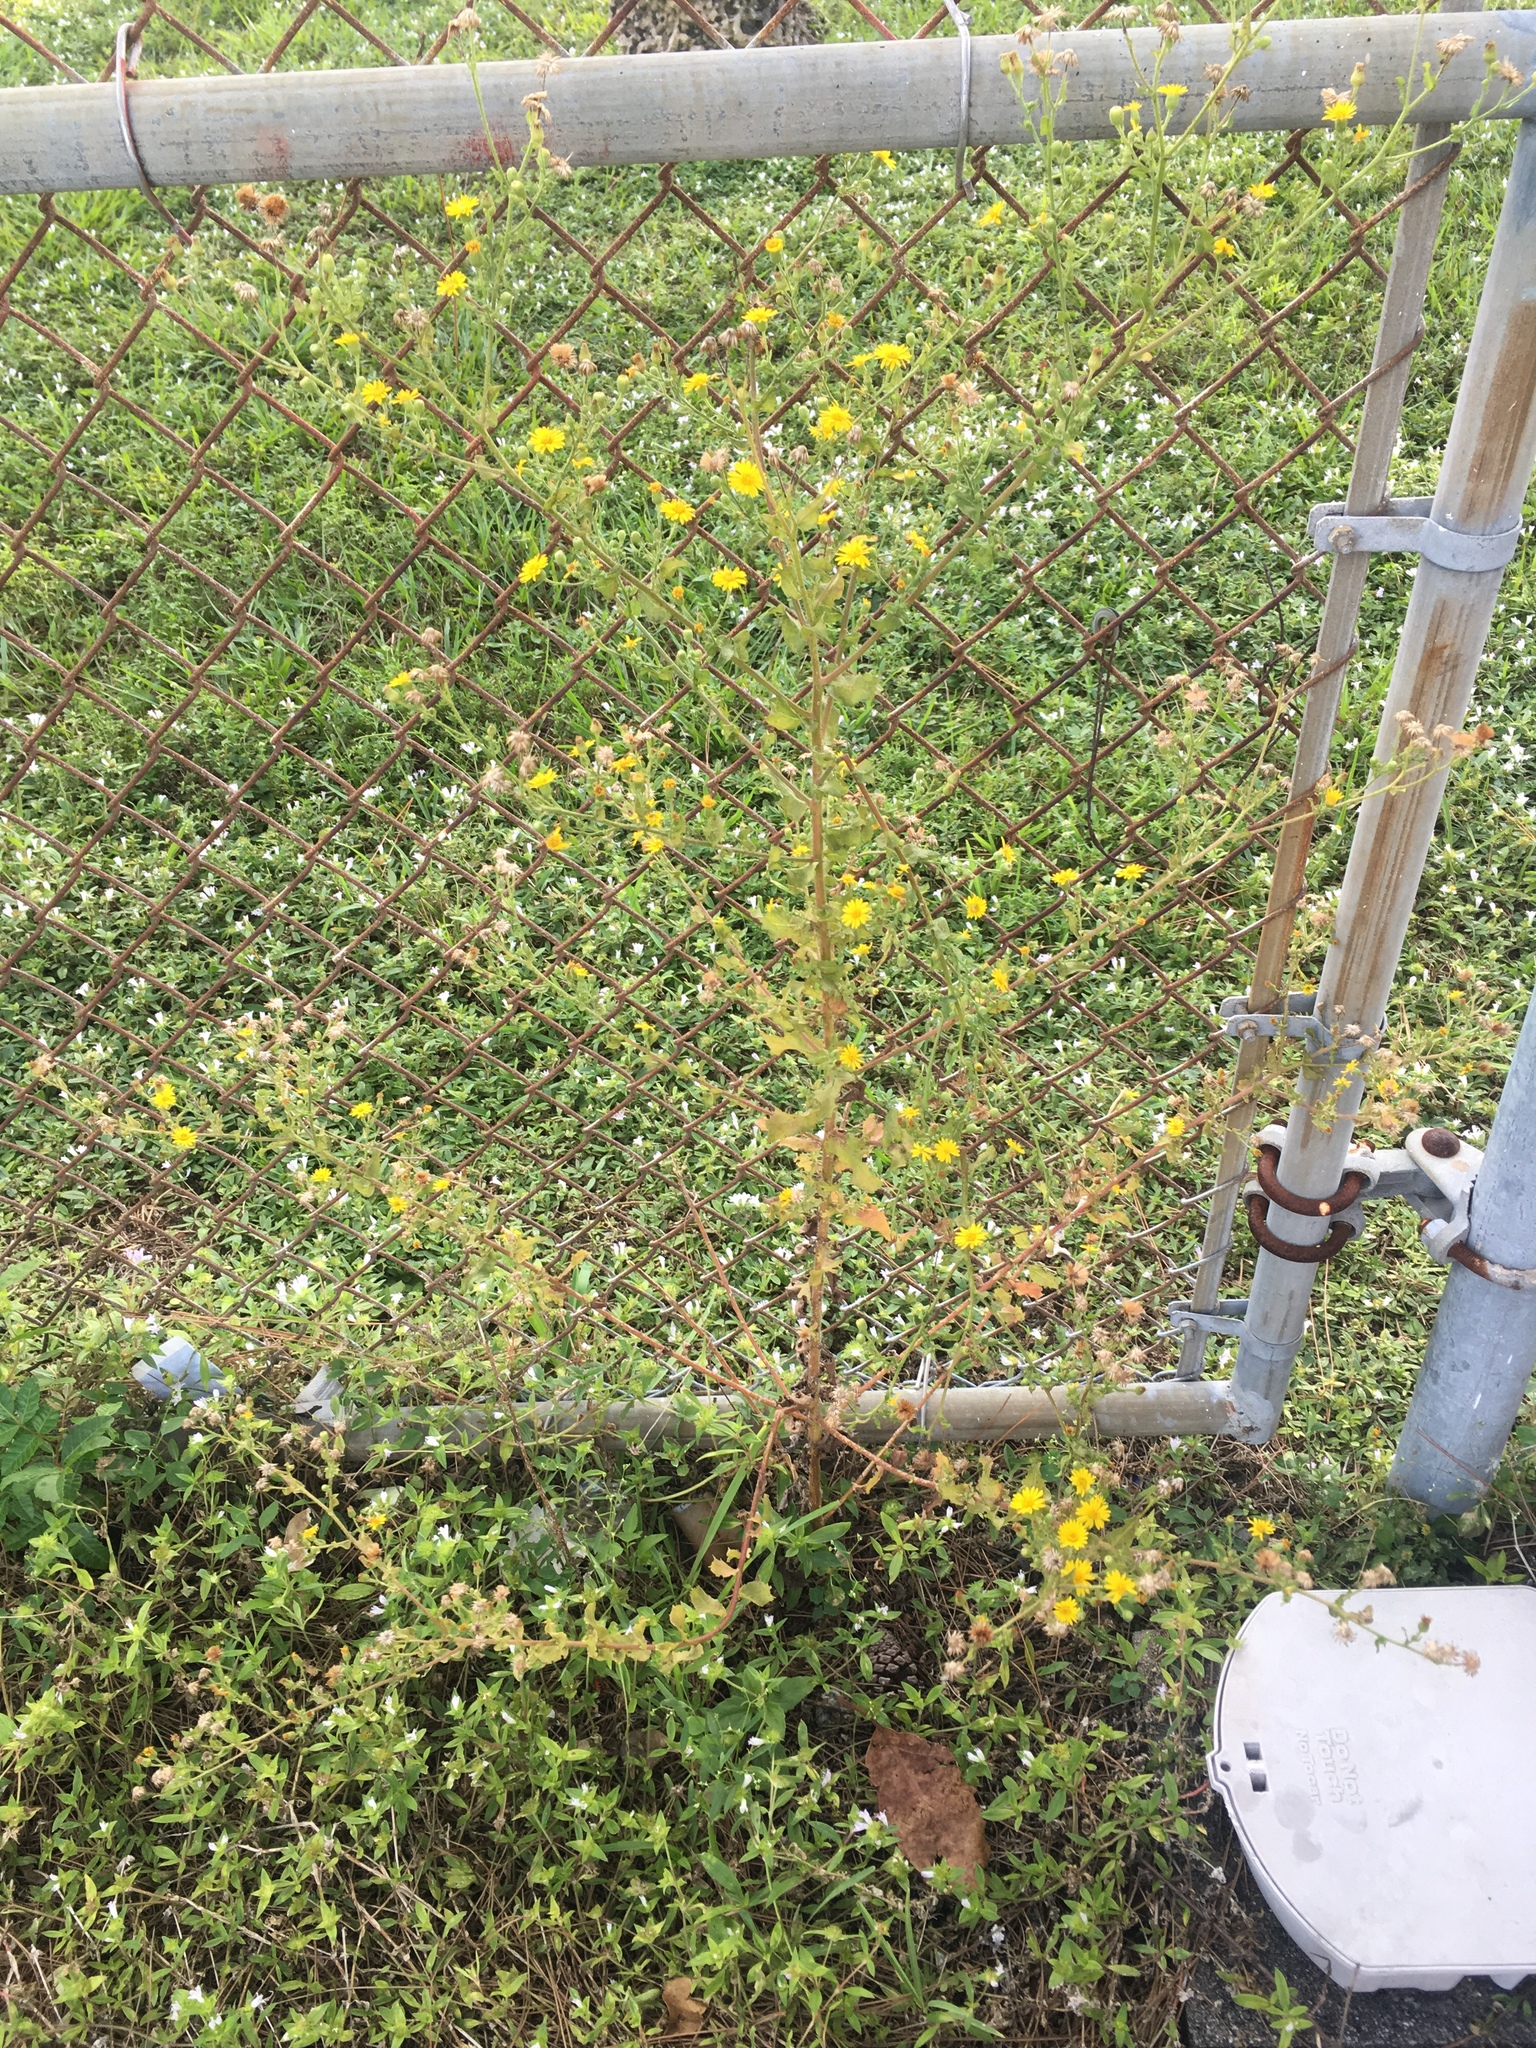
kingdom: Plantae
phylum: Tracheophyta
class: Magnoliopsida
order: Asterales
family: Asteraceae
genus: Heterotheca
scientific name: Heterotheca subaxillaris
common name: Camphorweed
